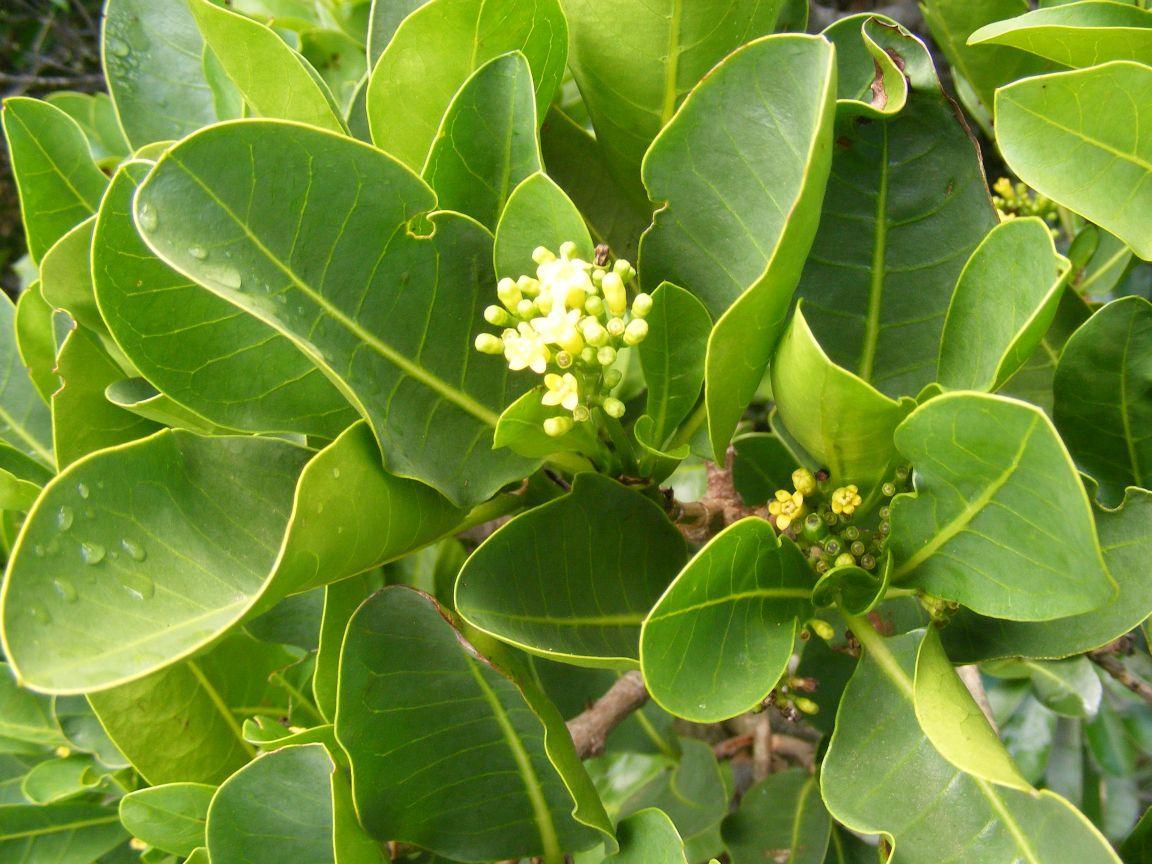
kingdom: Plantae
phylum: Tracheophyta
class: Magnoliopsida
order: Gentianales
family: Rubiaceae
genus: Psychotria
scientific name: Psychotria
